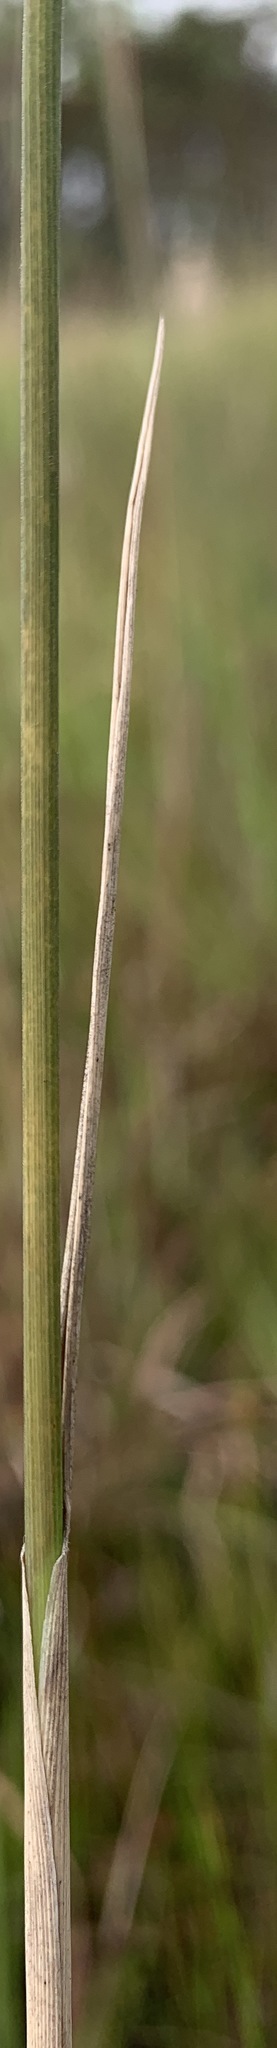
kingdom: Plantae
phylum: Tracheophyta
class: Liliopsida
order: Poales
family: Poaceae
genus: Ctenium
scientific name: Ctenium aromaticum
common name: Toothache grass
